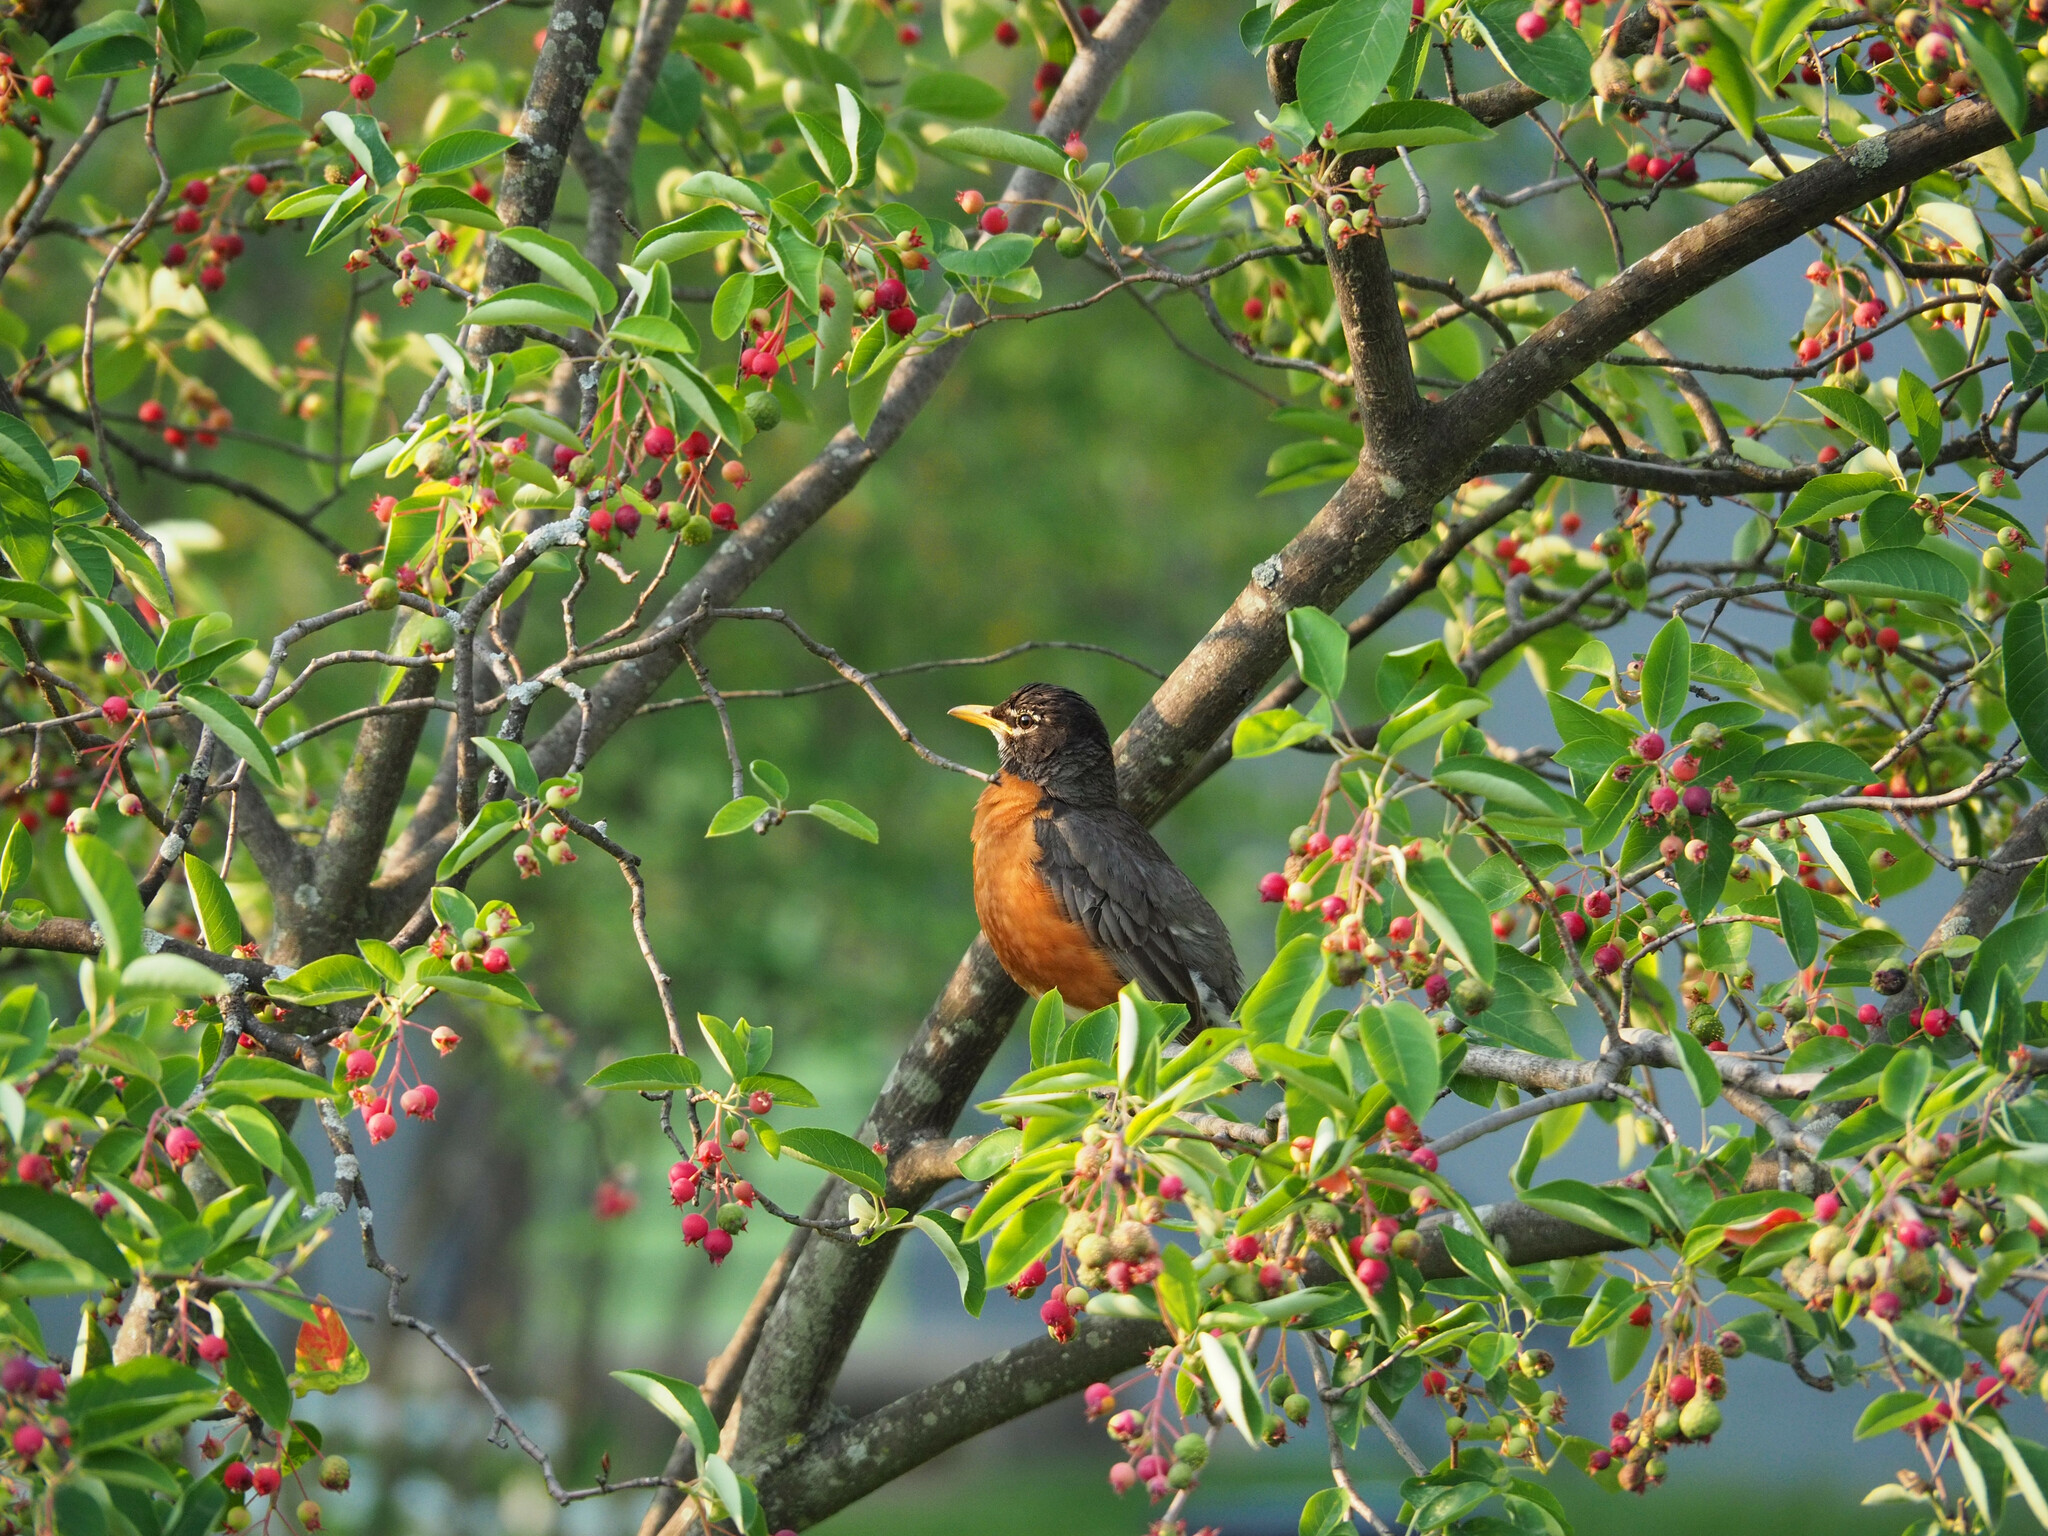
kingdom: Animalia
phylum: Chordata
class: Aves
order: Passeriformes
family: Turdidae
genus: Turdus
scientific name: Turdus migratorius
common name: American robin
